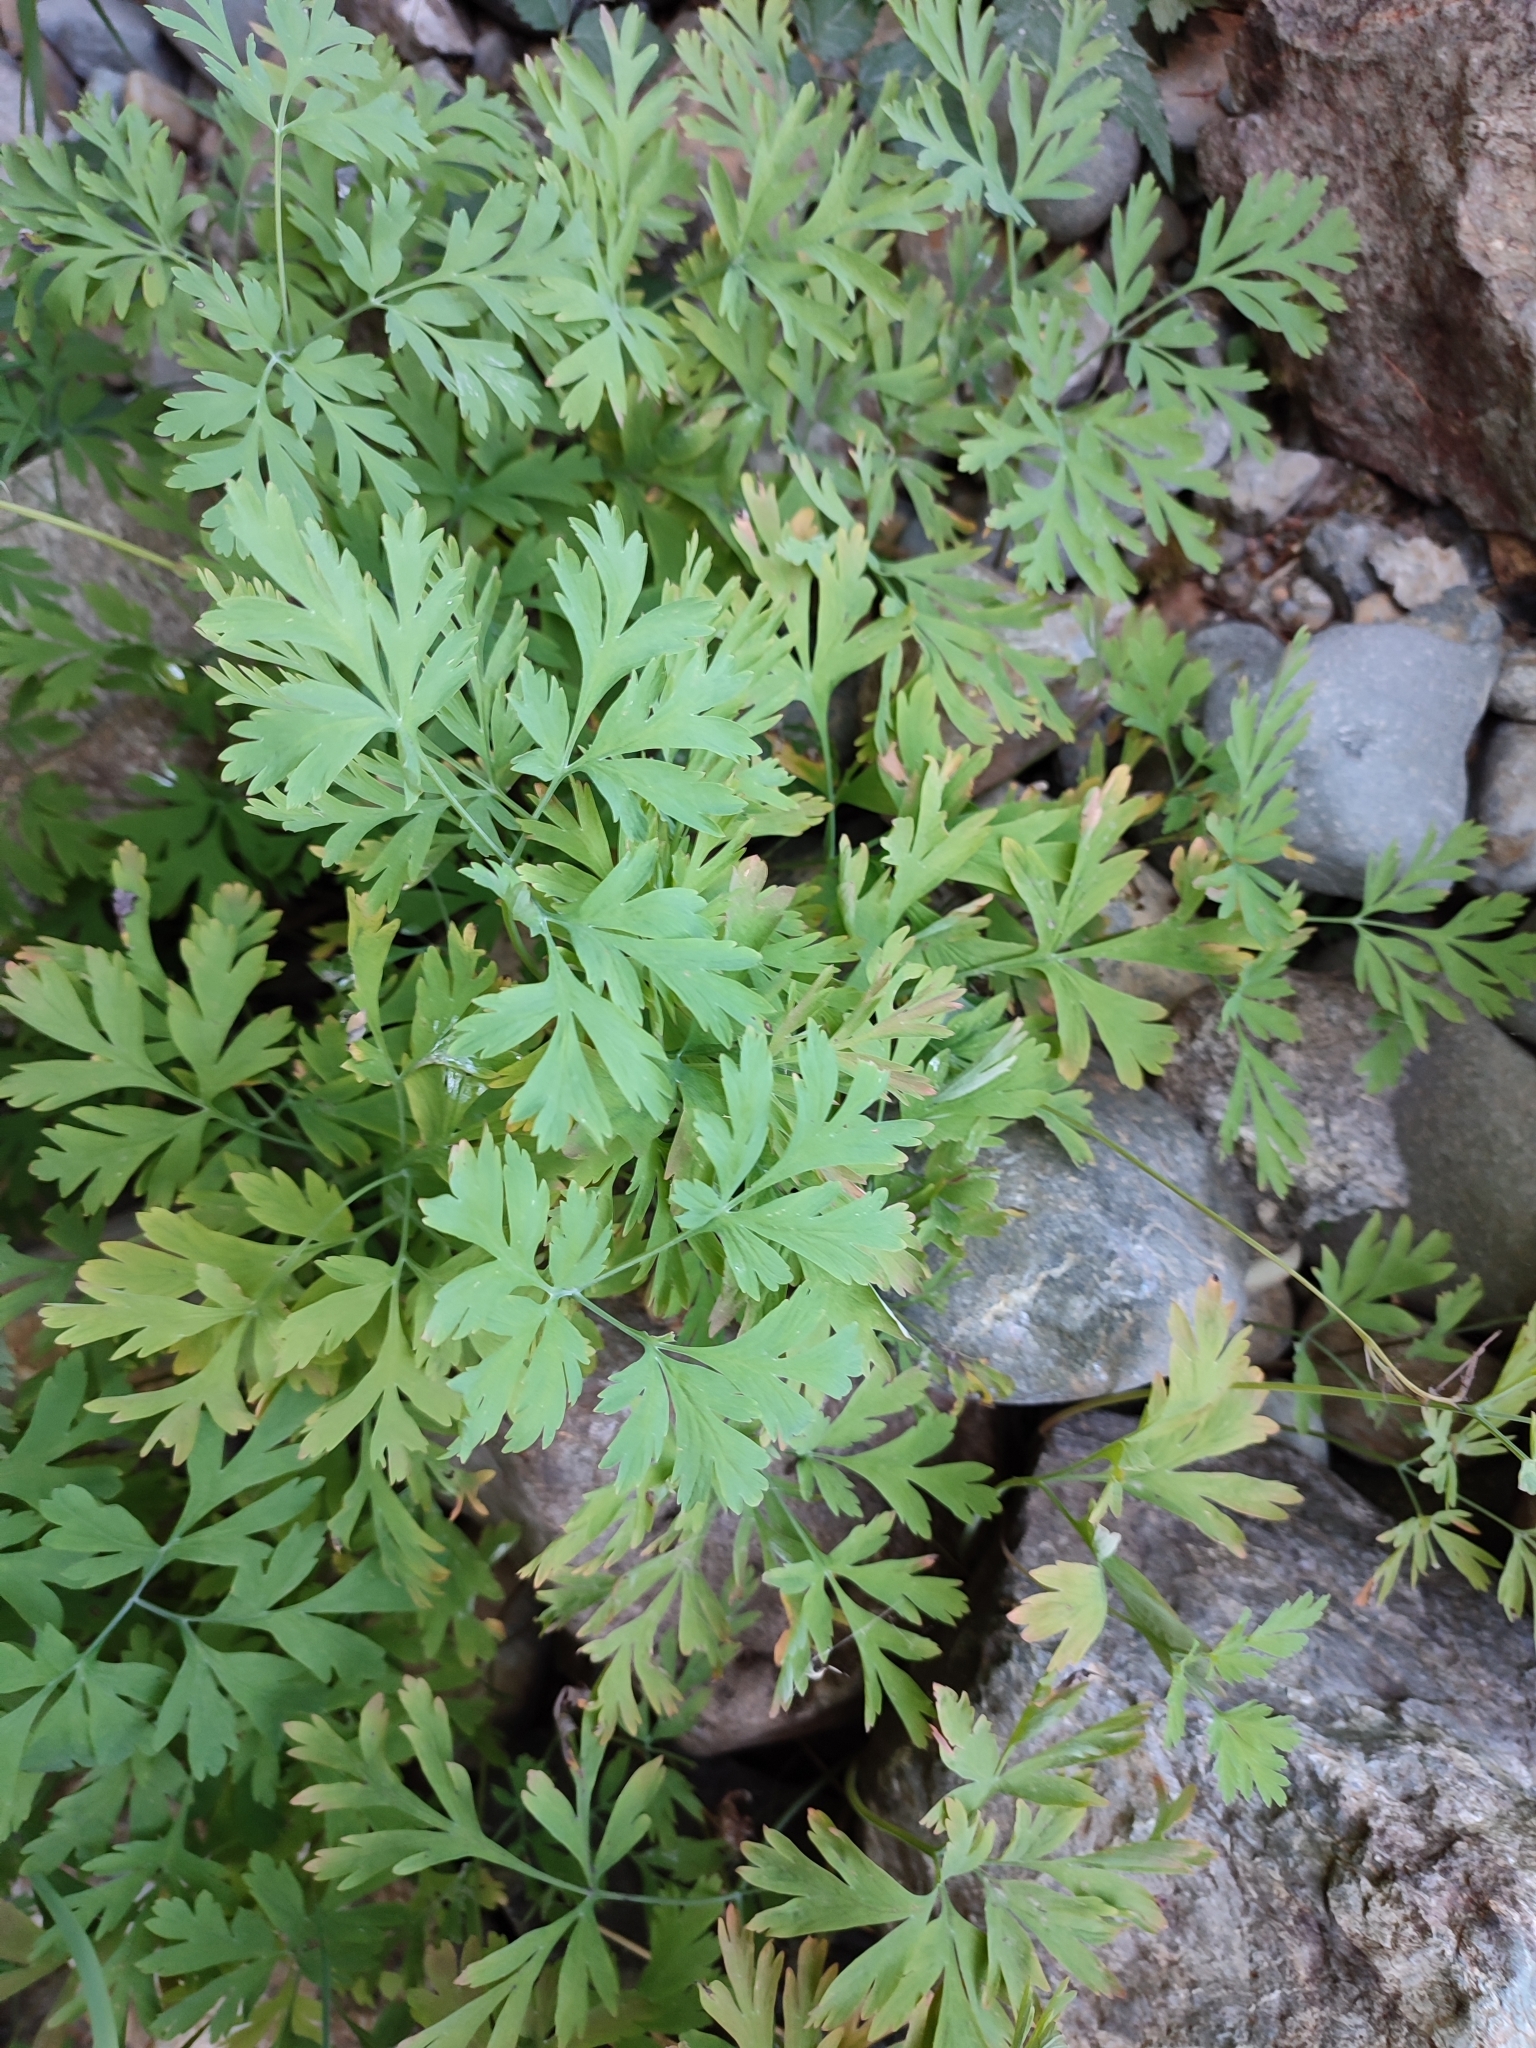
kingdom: Plantae
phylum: Tracheophyta
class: Magnoliopsida
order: Ranunculales
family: Papaveraceae
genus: Dicentra
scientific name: Dicentra formosa
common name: Bleeding-heart
